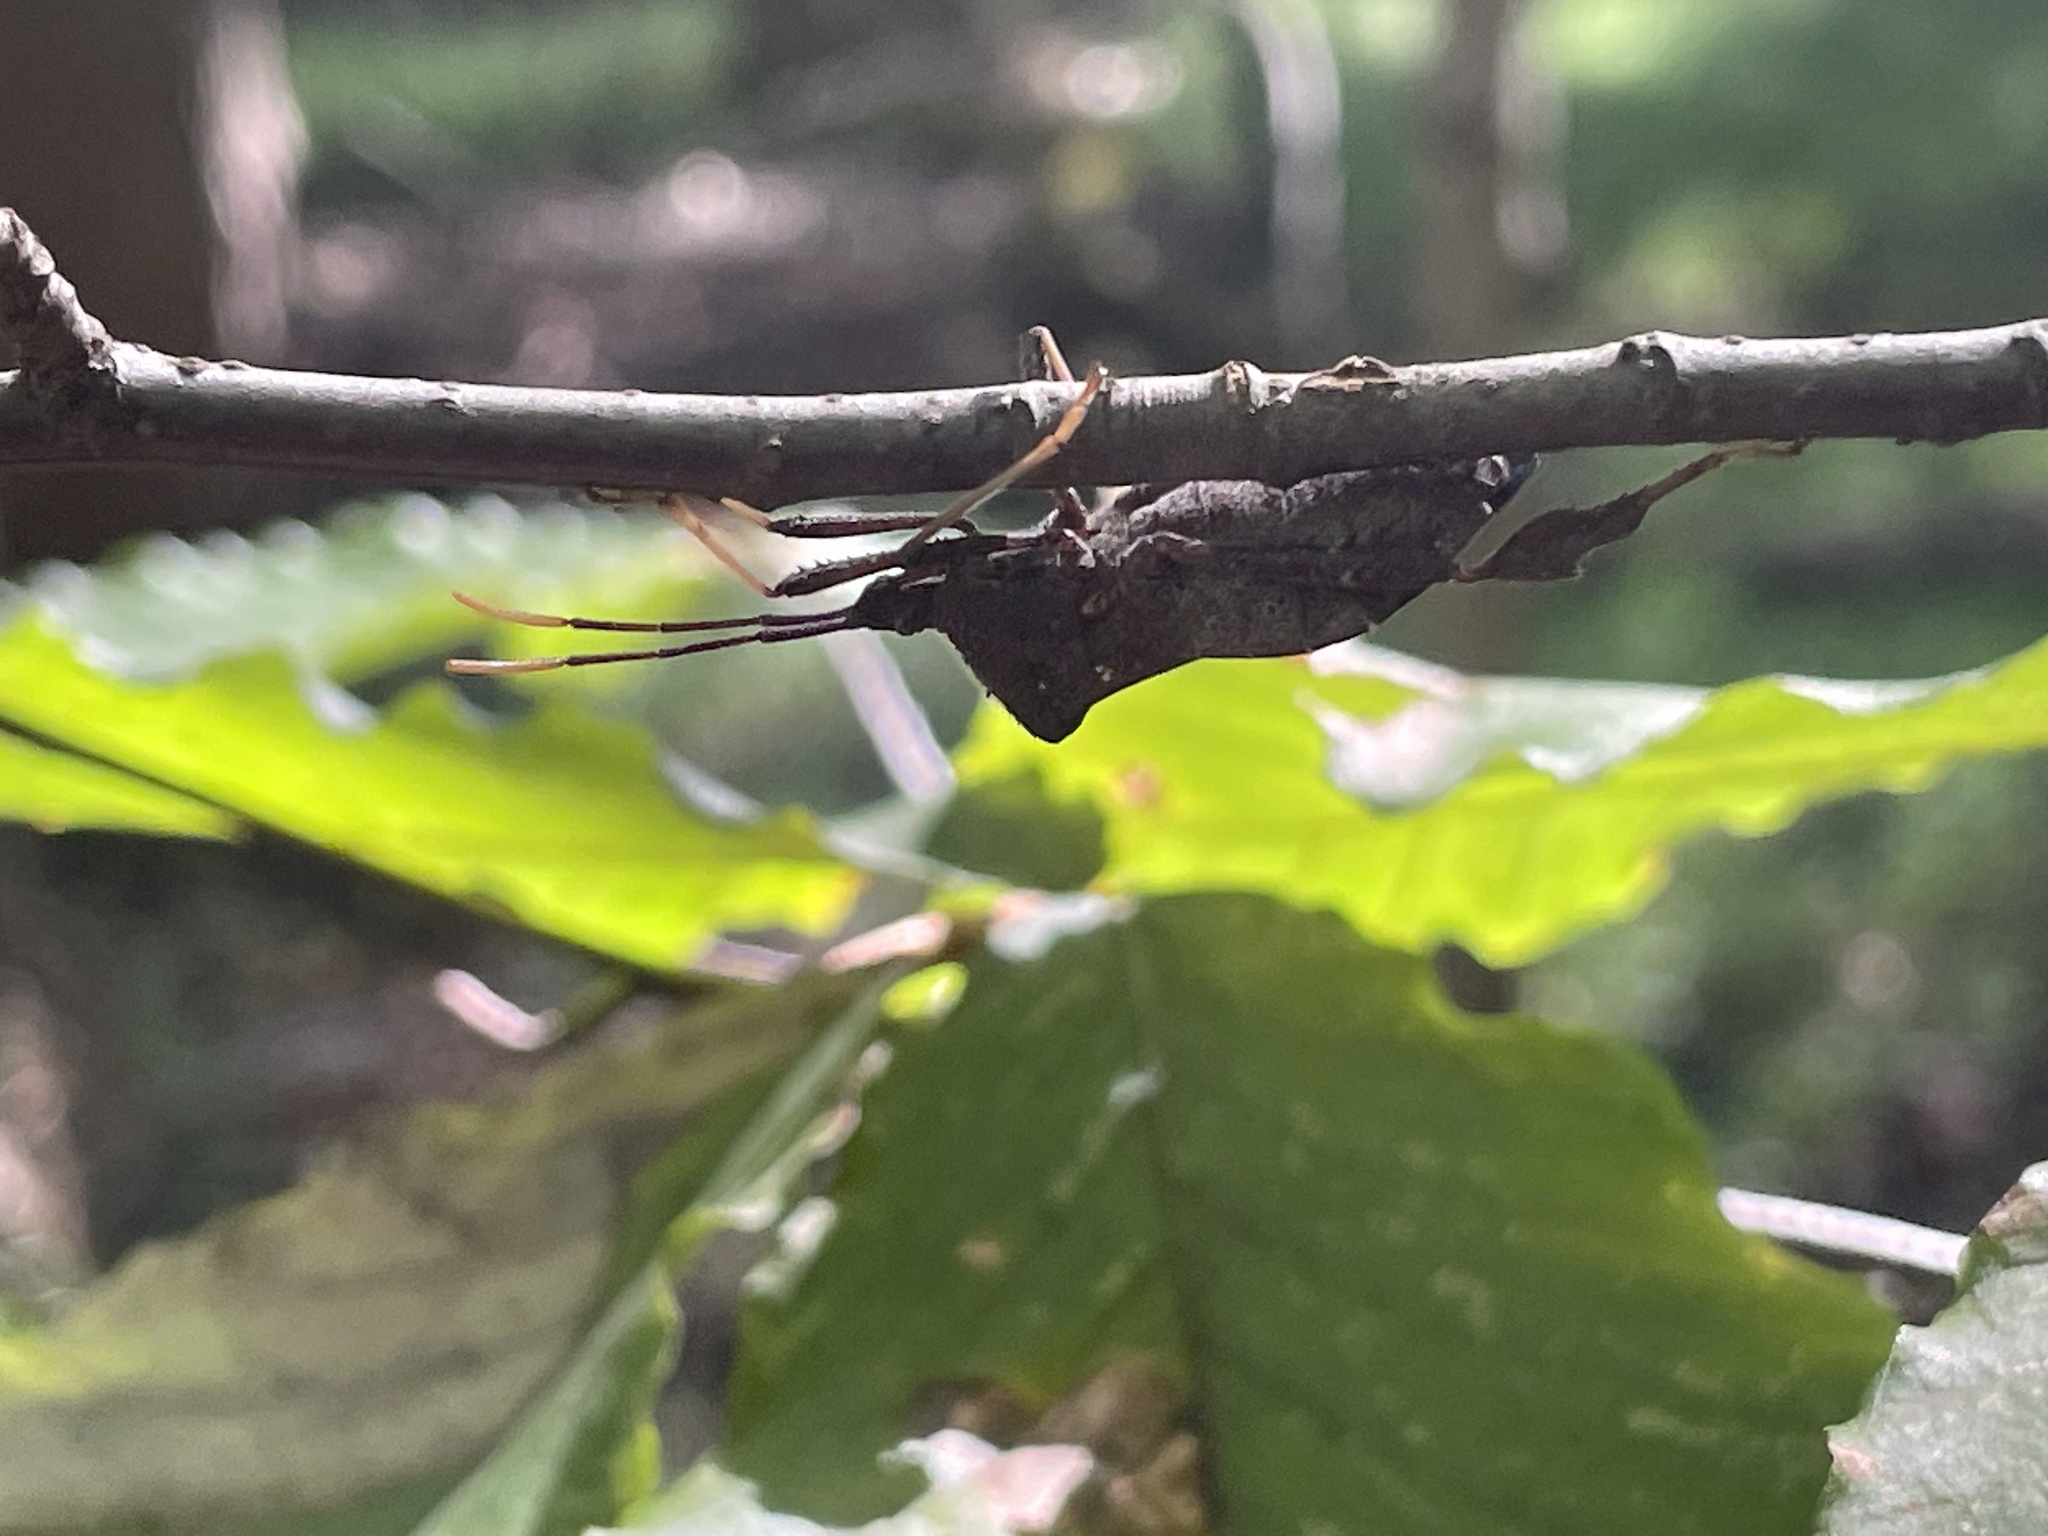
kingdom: Animalia
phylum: Arthropoda
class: Insecta
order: Hemiptera
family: Coreidae
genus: Acanthocephala
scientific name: Acanthocephala terminalis
